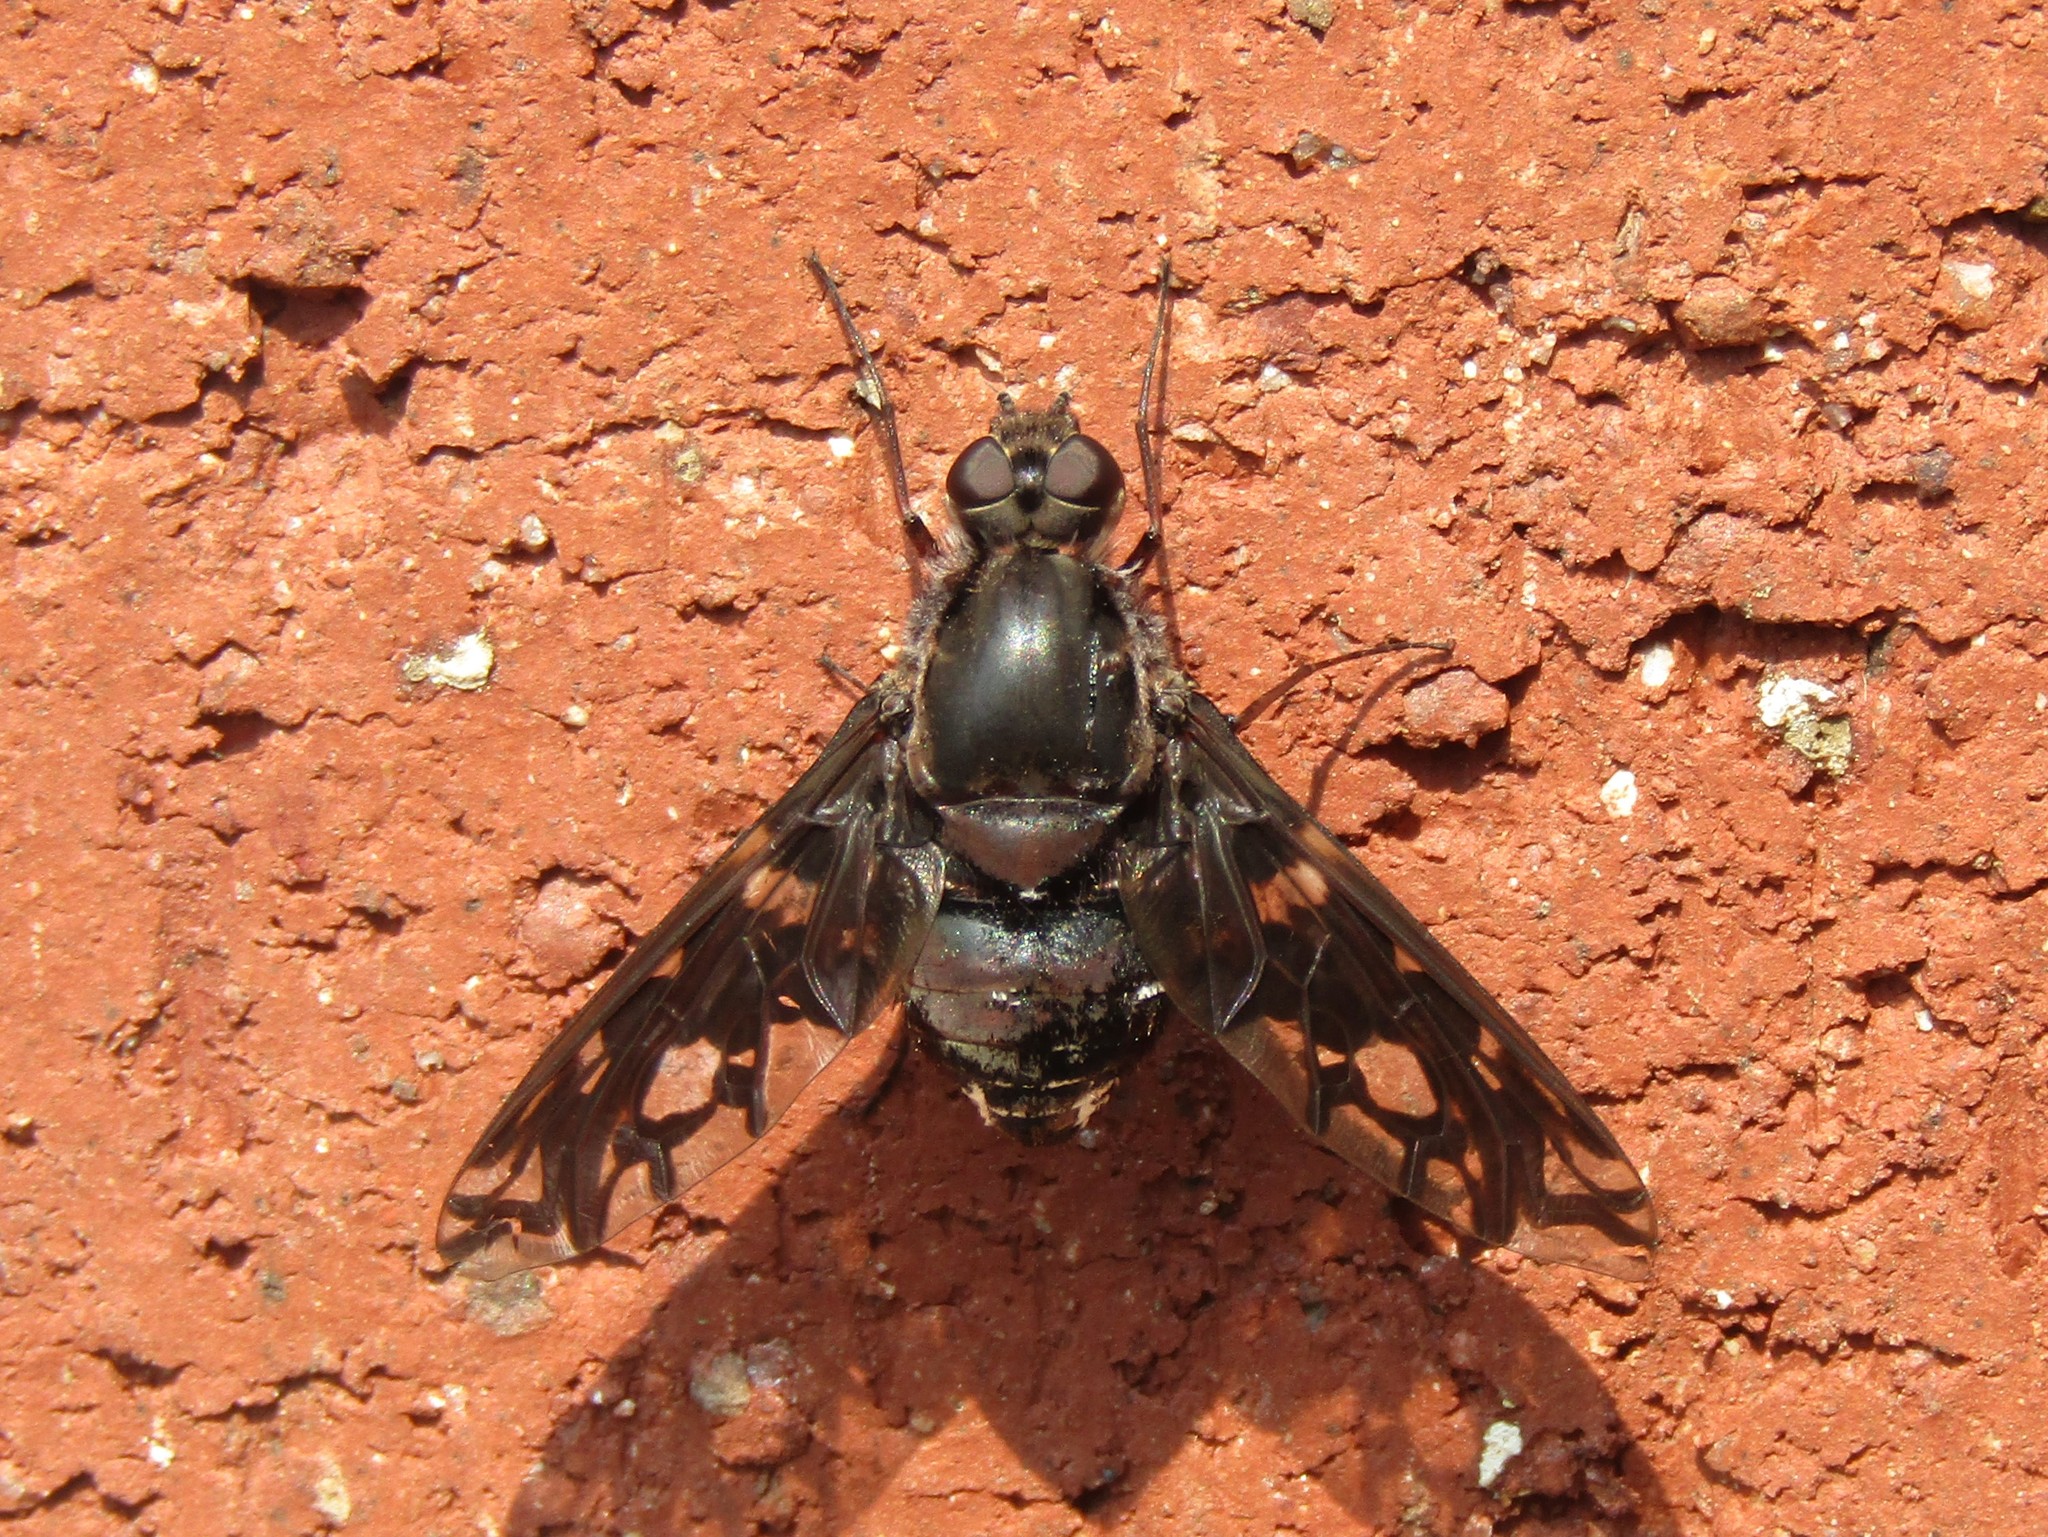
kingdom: Animalia
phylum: Arthropoda
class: Insecta
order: Diptera
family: Bombyliidae
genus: Xenox
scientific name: Xenox tigrinus
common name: Tiger bee fly
